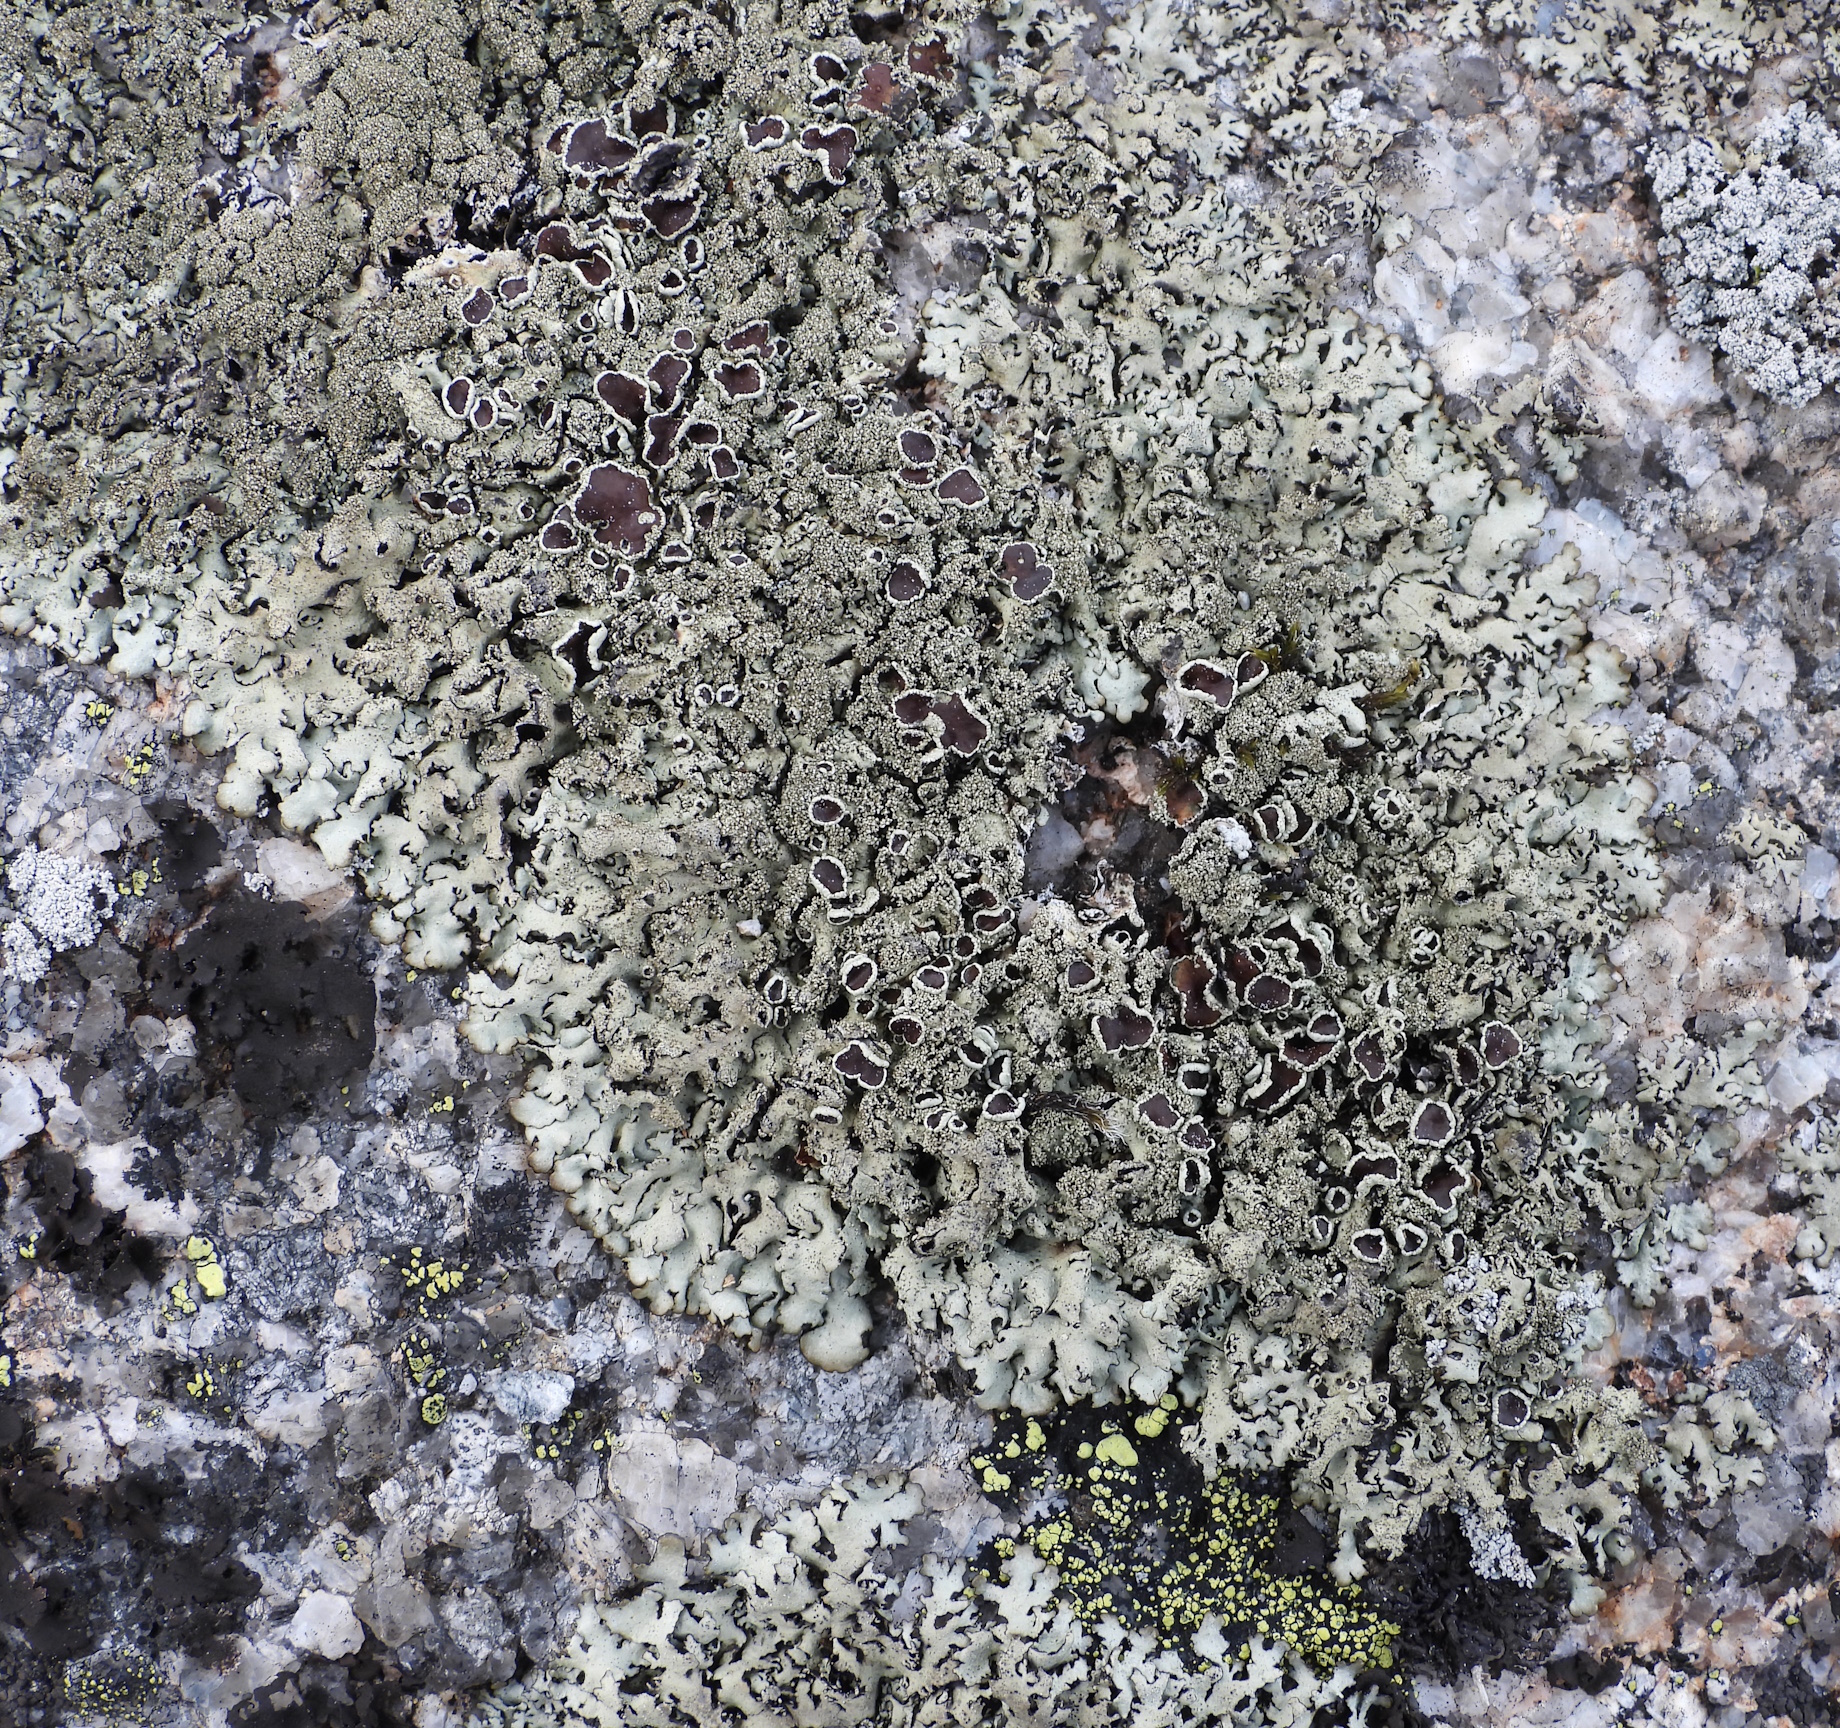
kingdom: Fungi
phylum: Ascomycota
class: Lecanoromycetes
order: Lecanorales
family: Parmeliaceae
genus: Xanthoparmelia
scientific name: Xanthoparmelia conspersa
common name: Peppered rock shield
